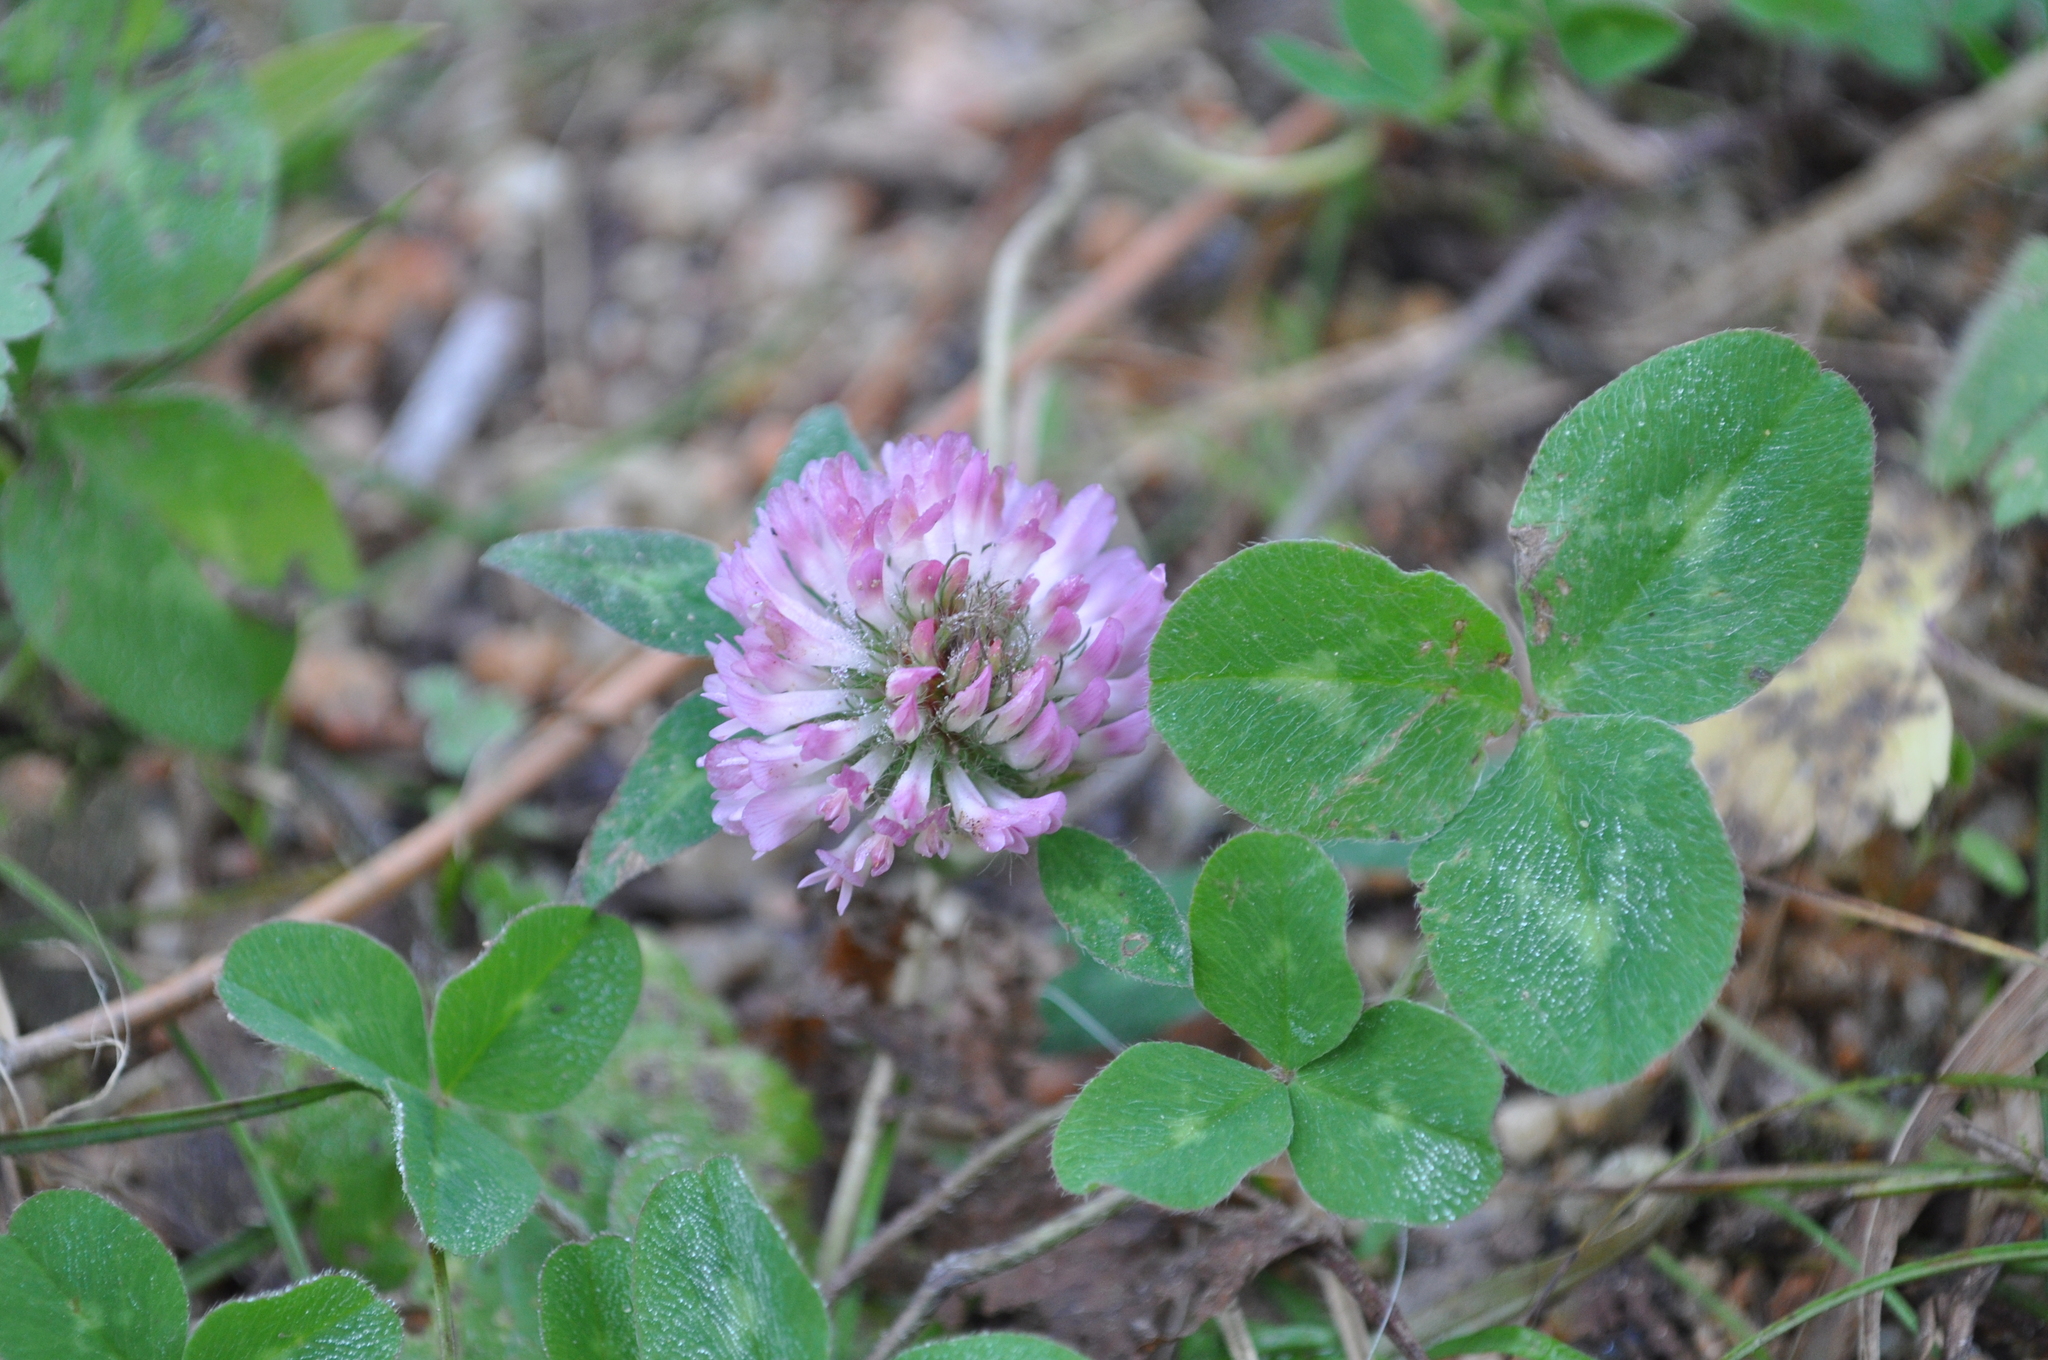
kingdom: Plantae
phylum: Tracheophyta
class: Magnoliopsida
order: Fabales
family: Fabaceae
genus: Trifolium
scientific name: Trifolium pratense
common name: Red clover
